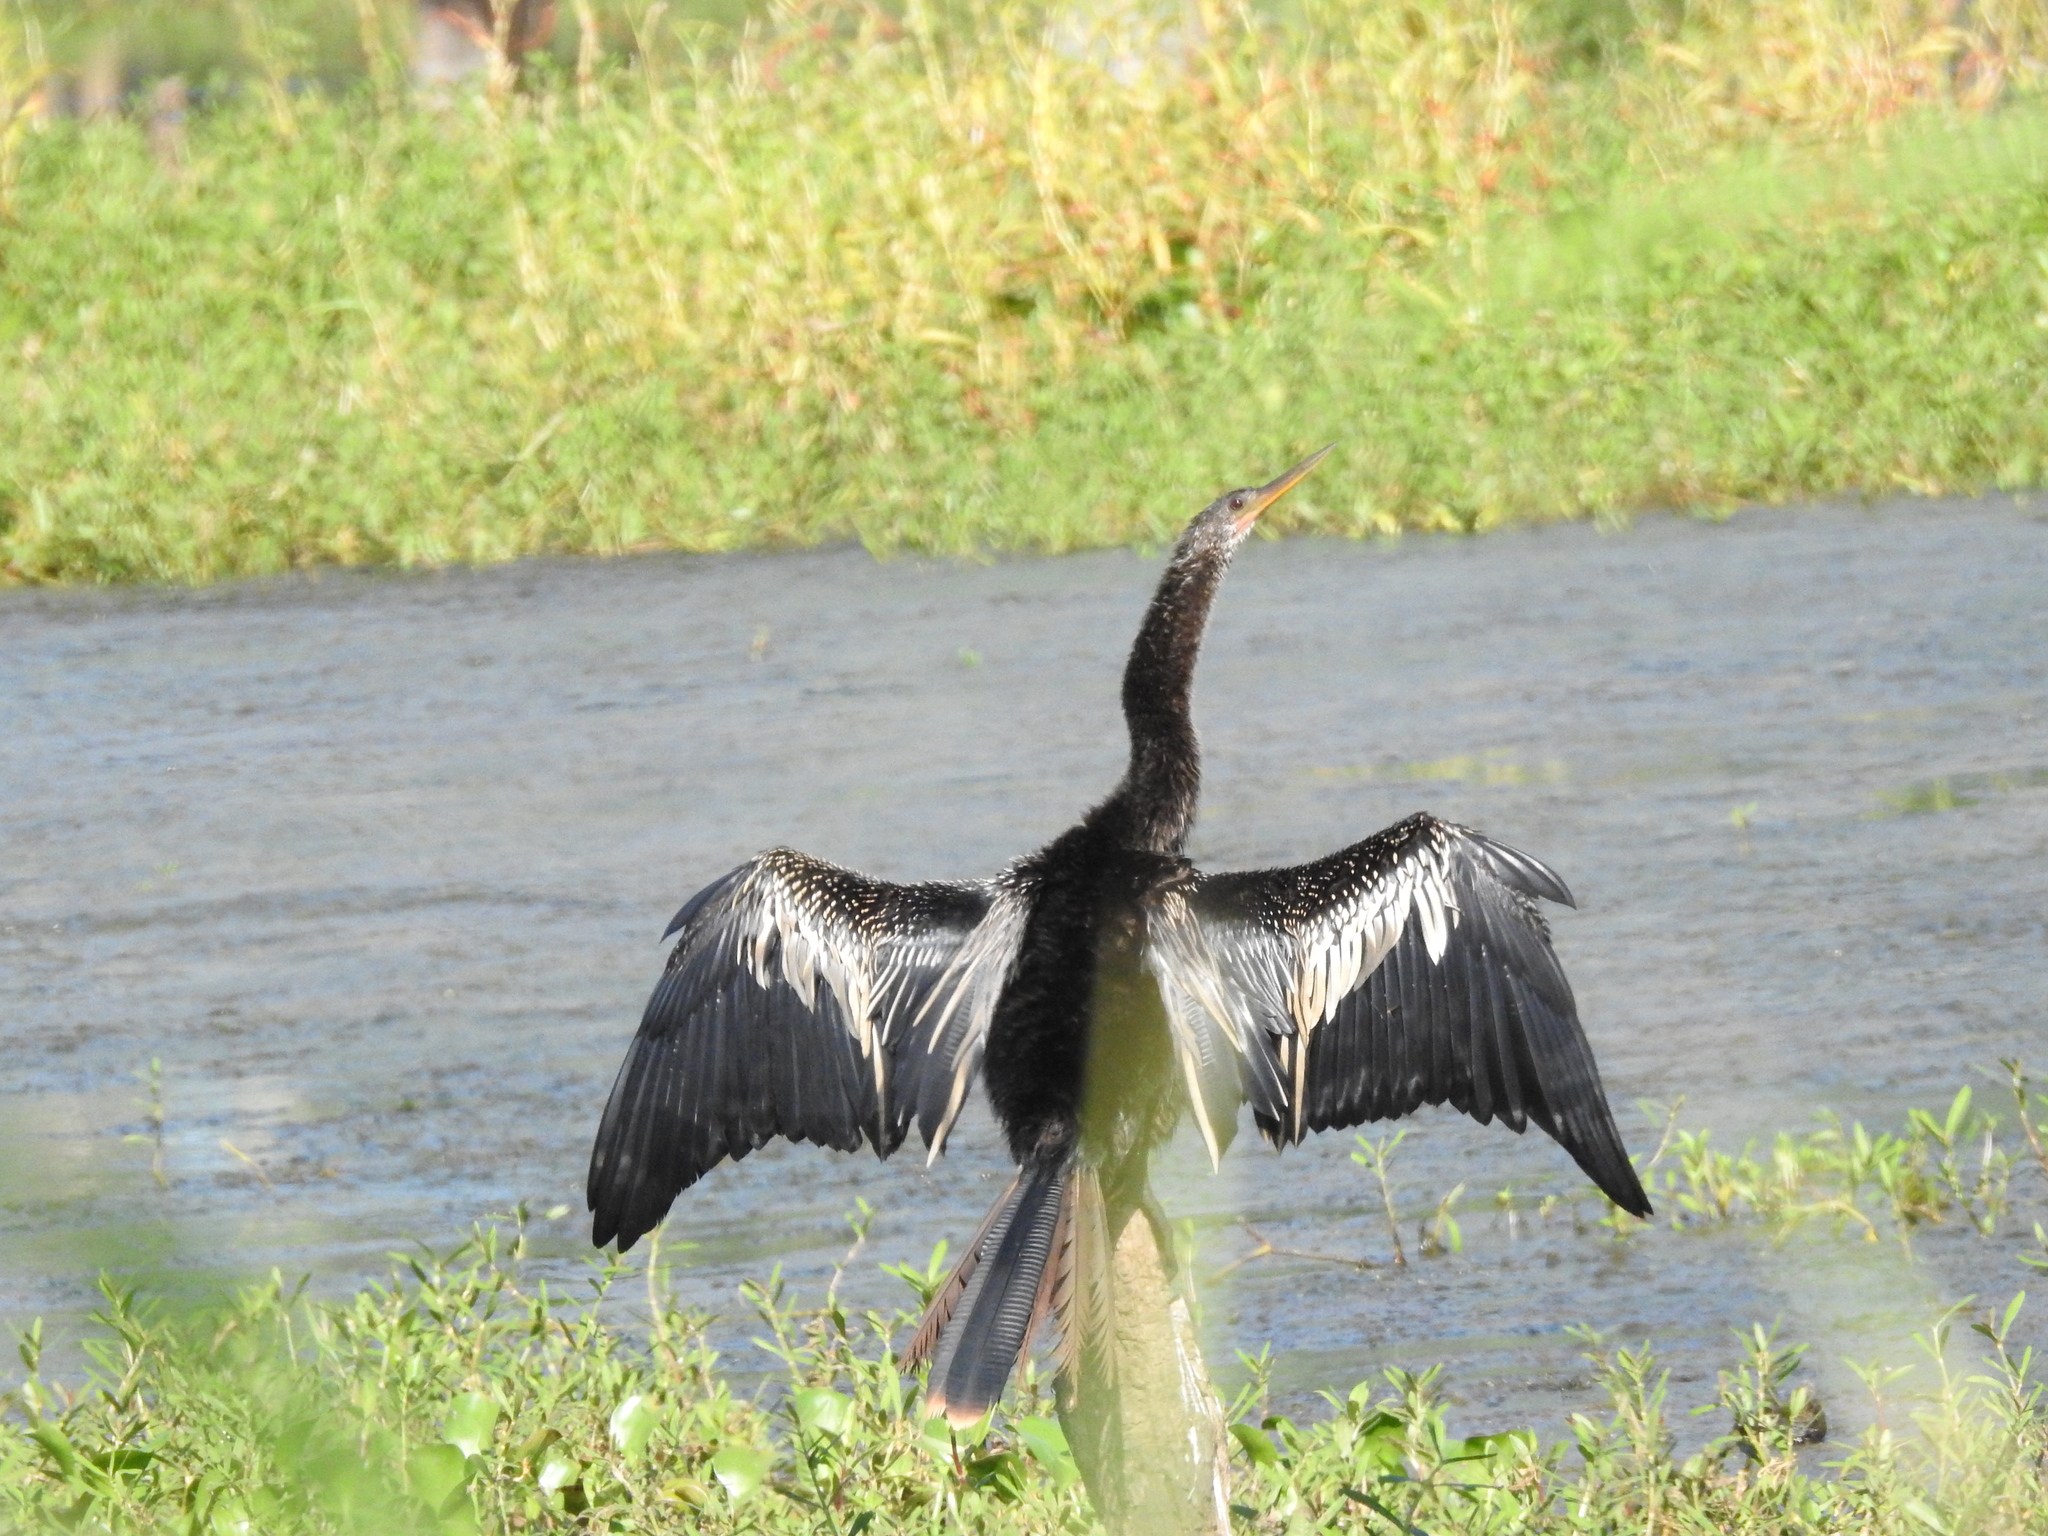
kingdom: Animalia
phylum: Chordata
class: Aves
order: Suliformes
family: Anhingidae
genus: Anhinga
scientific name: Anhinga anhinga
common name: Anhinga
